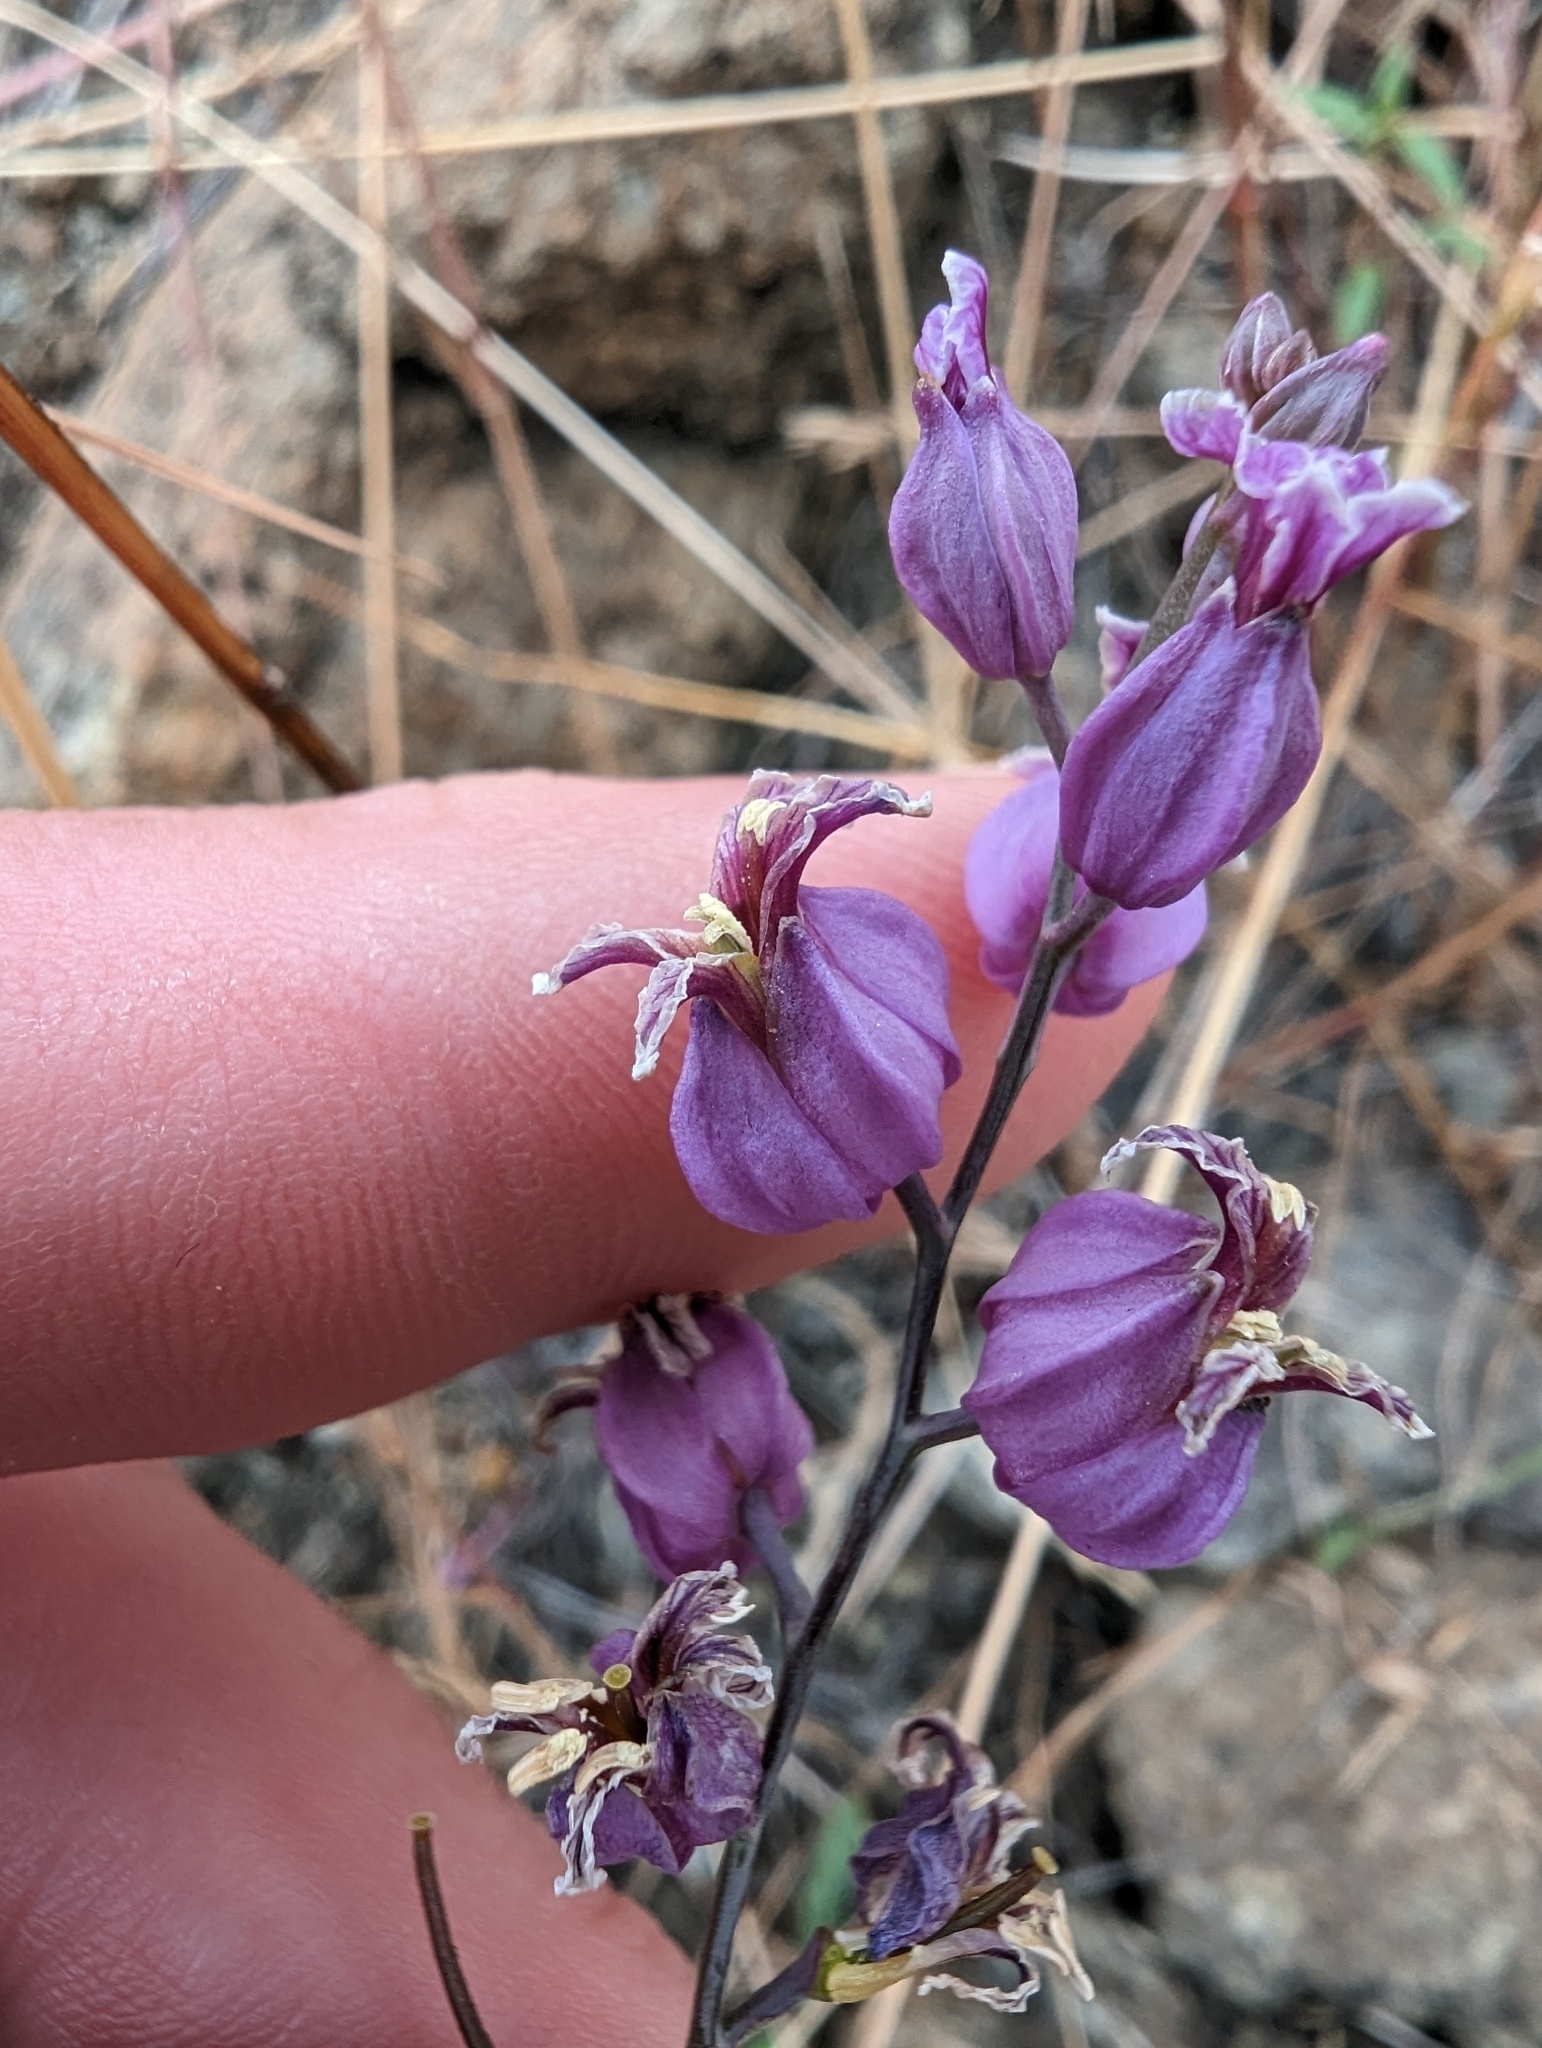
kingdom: Plantae
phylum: Tracheophyta
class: Magnoliopsida
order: Brassicales
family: Brassicaceae
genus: Streptanthus
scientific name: Streptanthus glandulosus
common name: Jewel-flower
